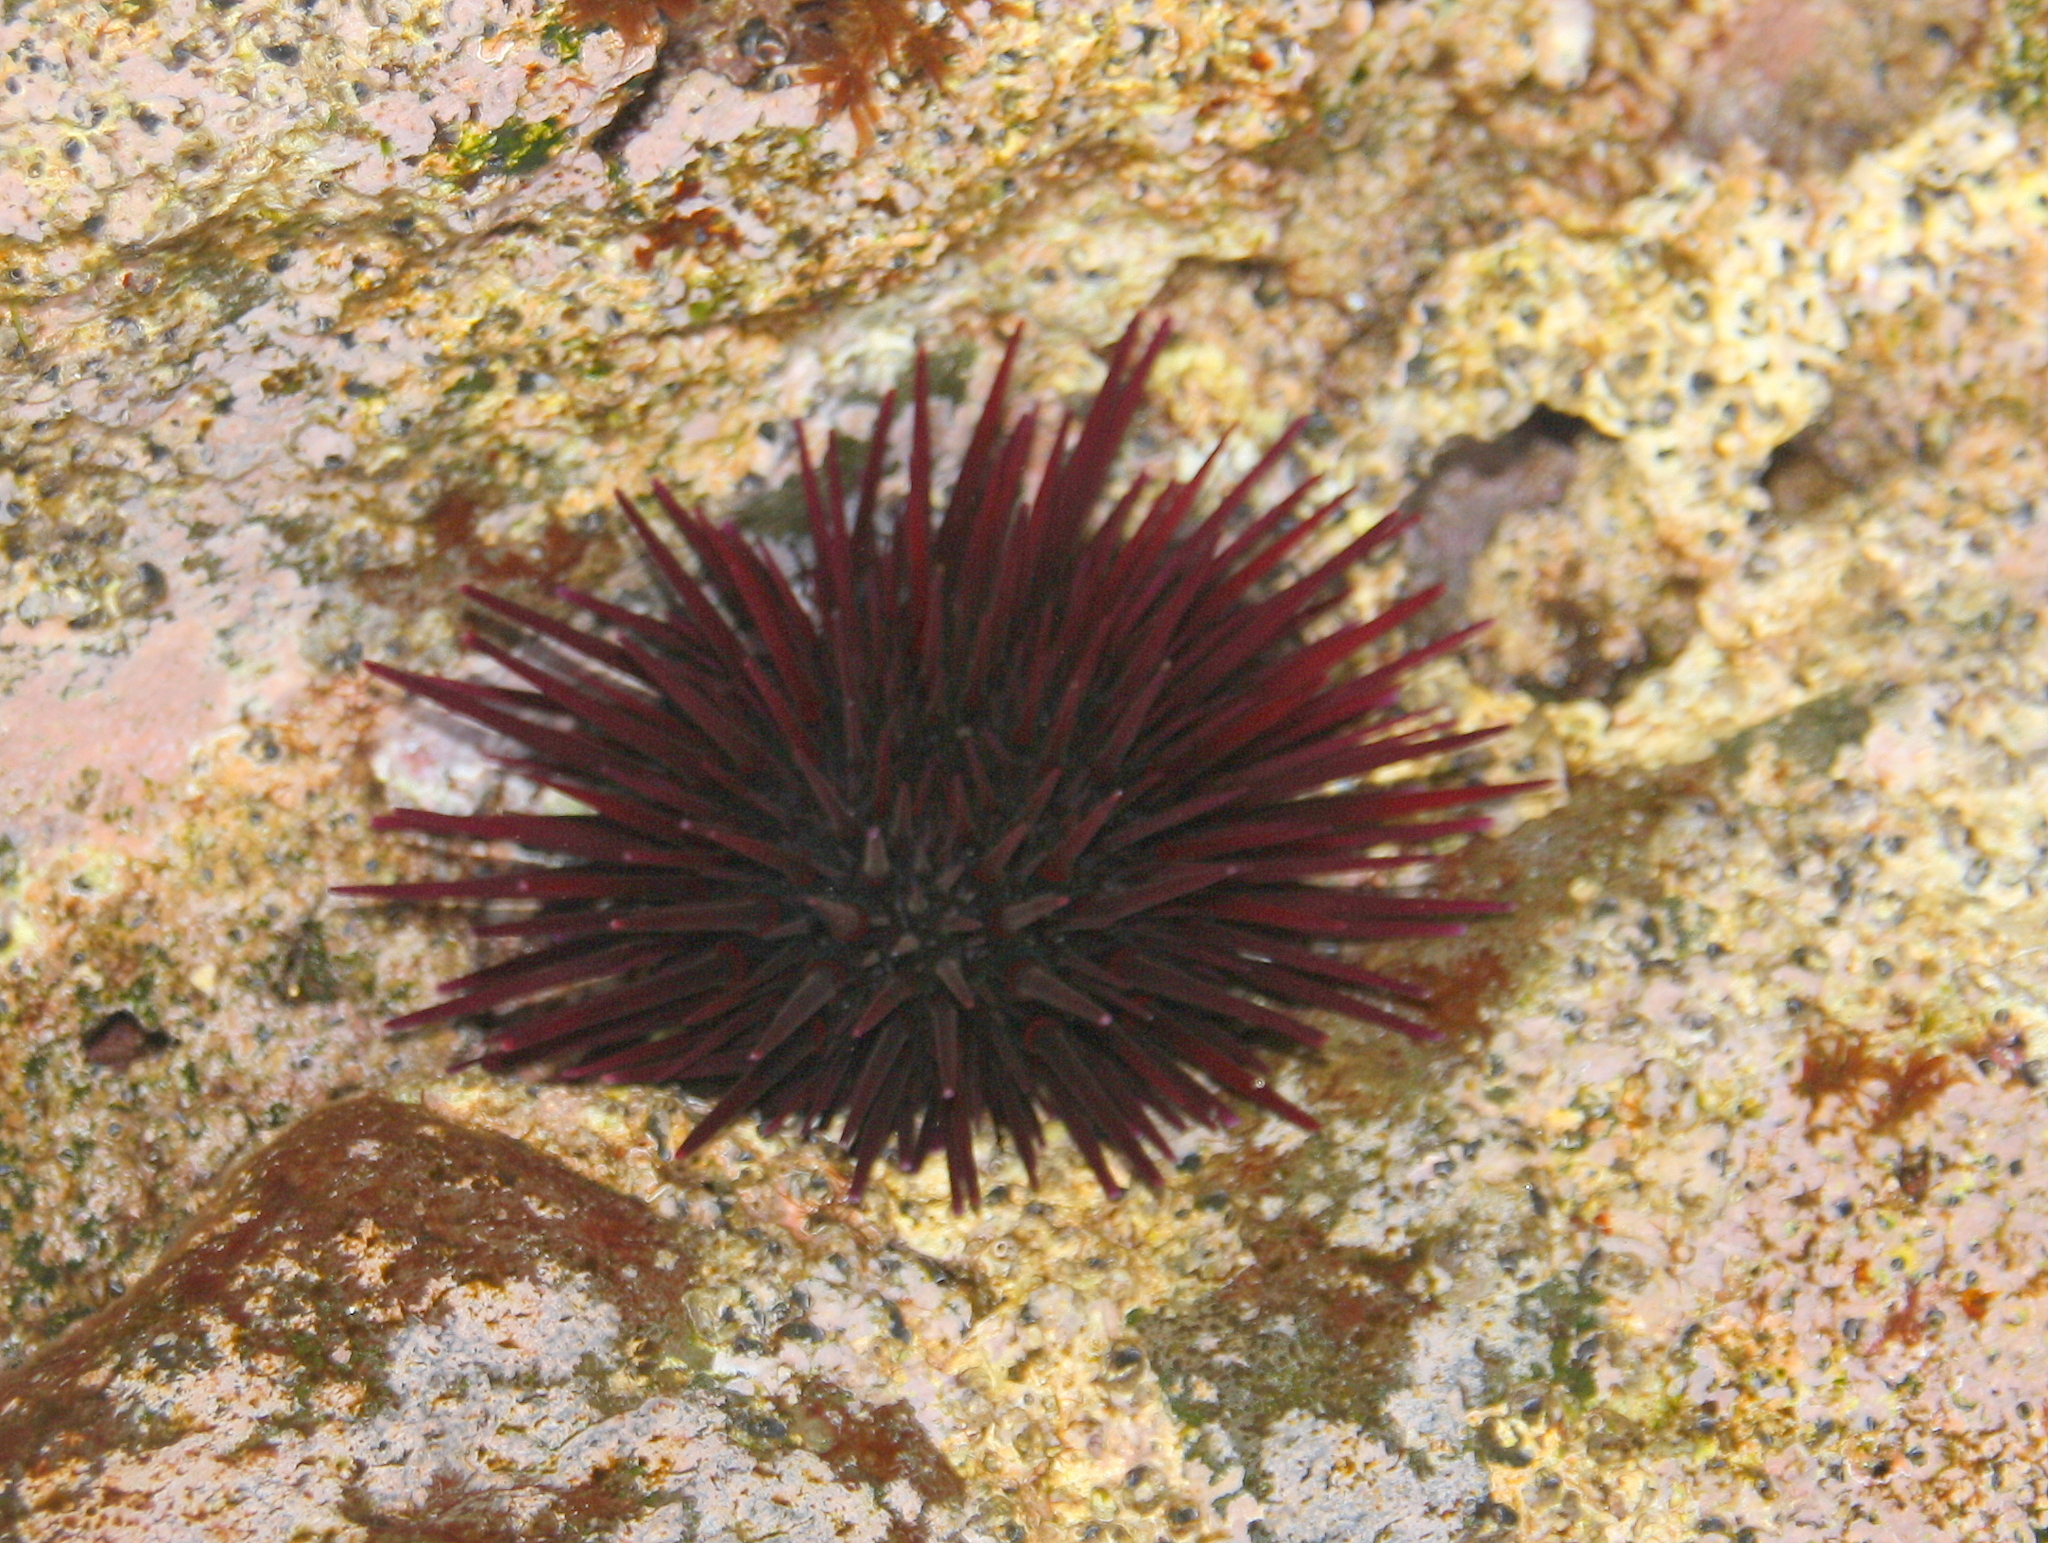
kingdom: Animalia
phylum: Echinodermata
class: Echinoidea
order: Camarodonta
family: Echinometridae
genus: Echinometra
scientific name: Echinometra insularis
